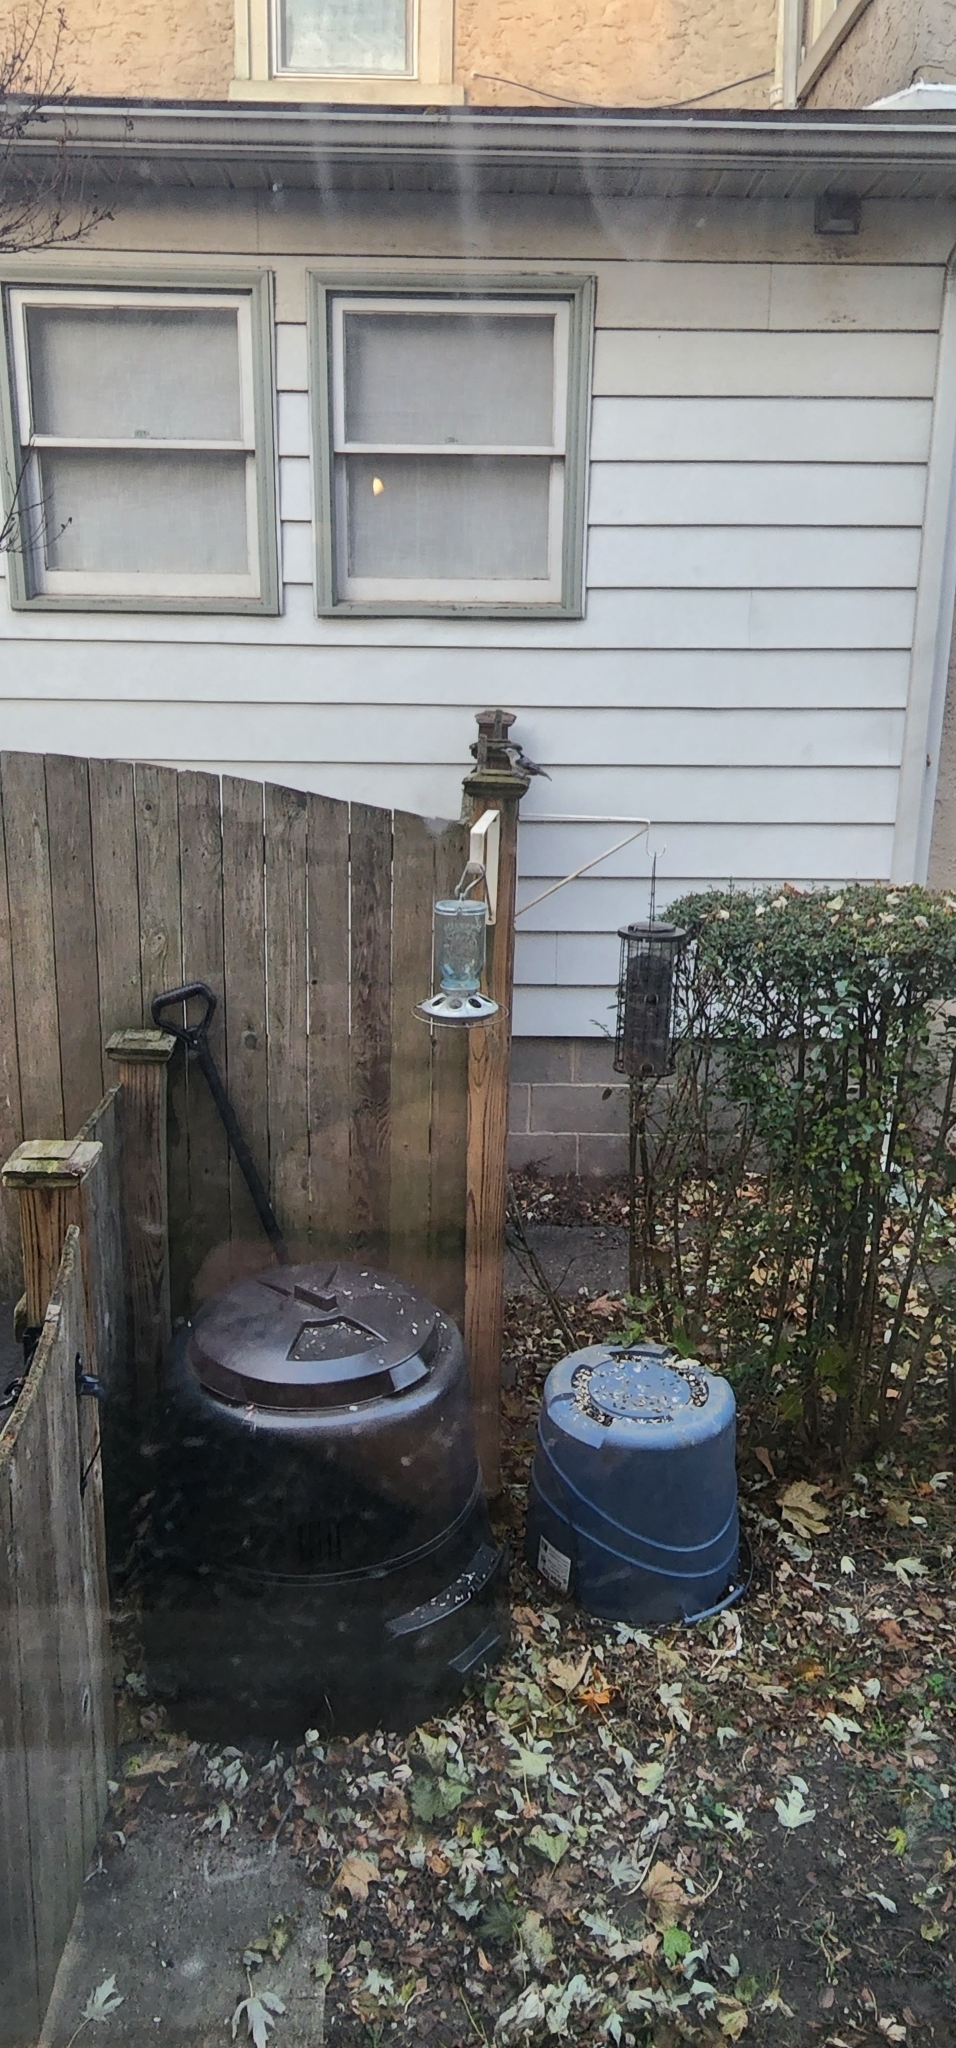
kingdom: Animalia
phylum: Chordata
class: Aves
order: Passeriformes
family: Sittidae
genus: Sitta
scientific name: Sitta carolinensis
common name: White-breasted nuthatch
